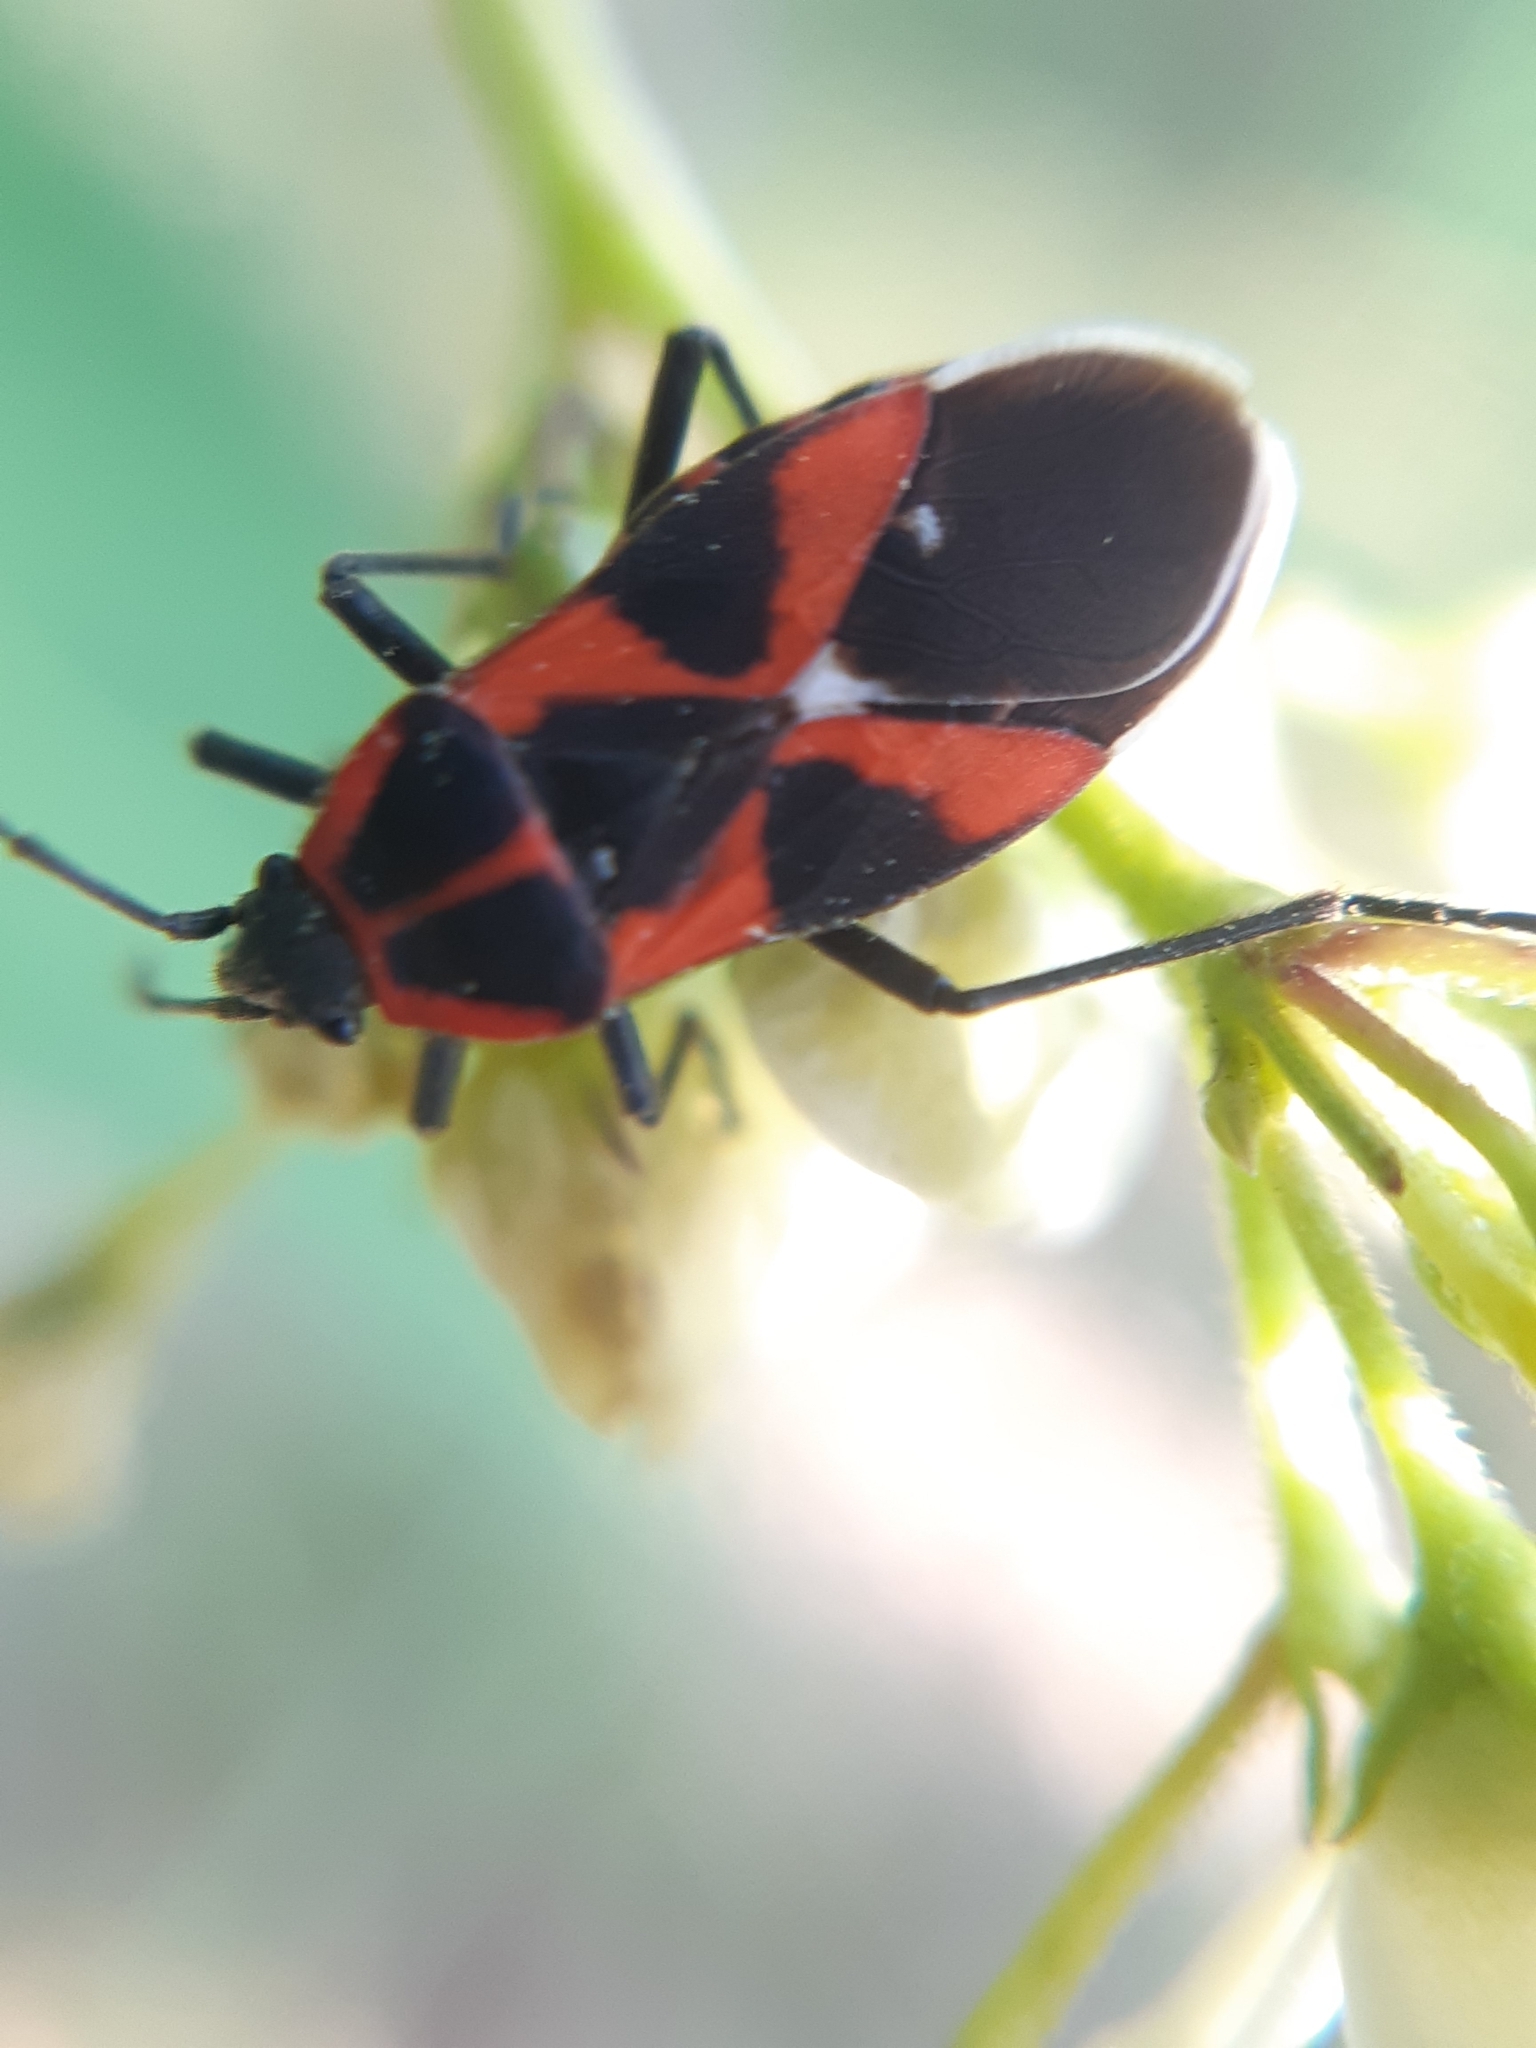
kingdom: Animalia
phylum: Arthropoda
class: Insecta
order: Hemiptera
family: Lygaeidae
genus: Tropidothorax
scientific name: Tropidothorax leucopterus
